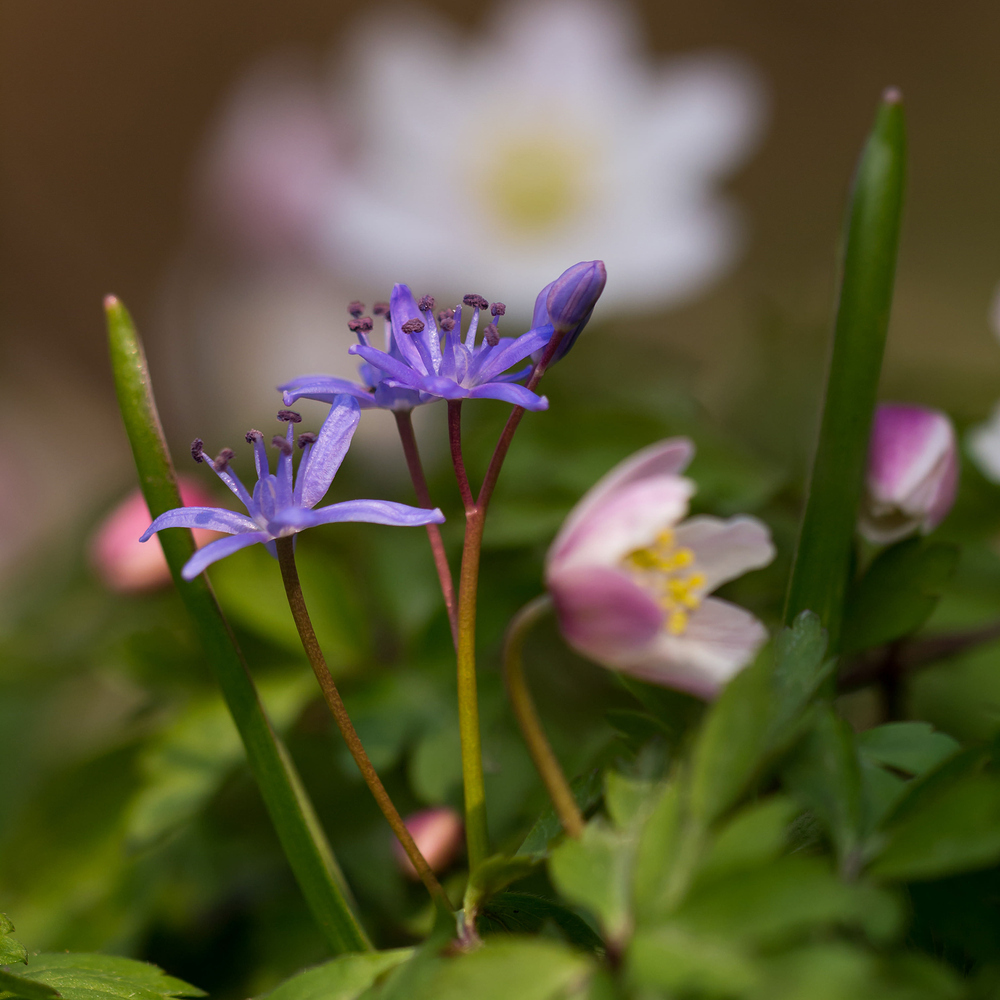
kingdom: Plantae
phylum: Tracheophyta
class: Liliopsida
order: Asparagales
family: Asparagaceae
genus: Scilla
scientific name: Scilla bifolia
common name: Alpine squill
